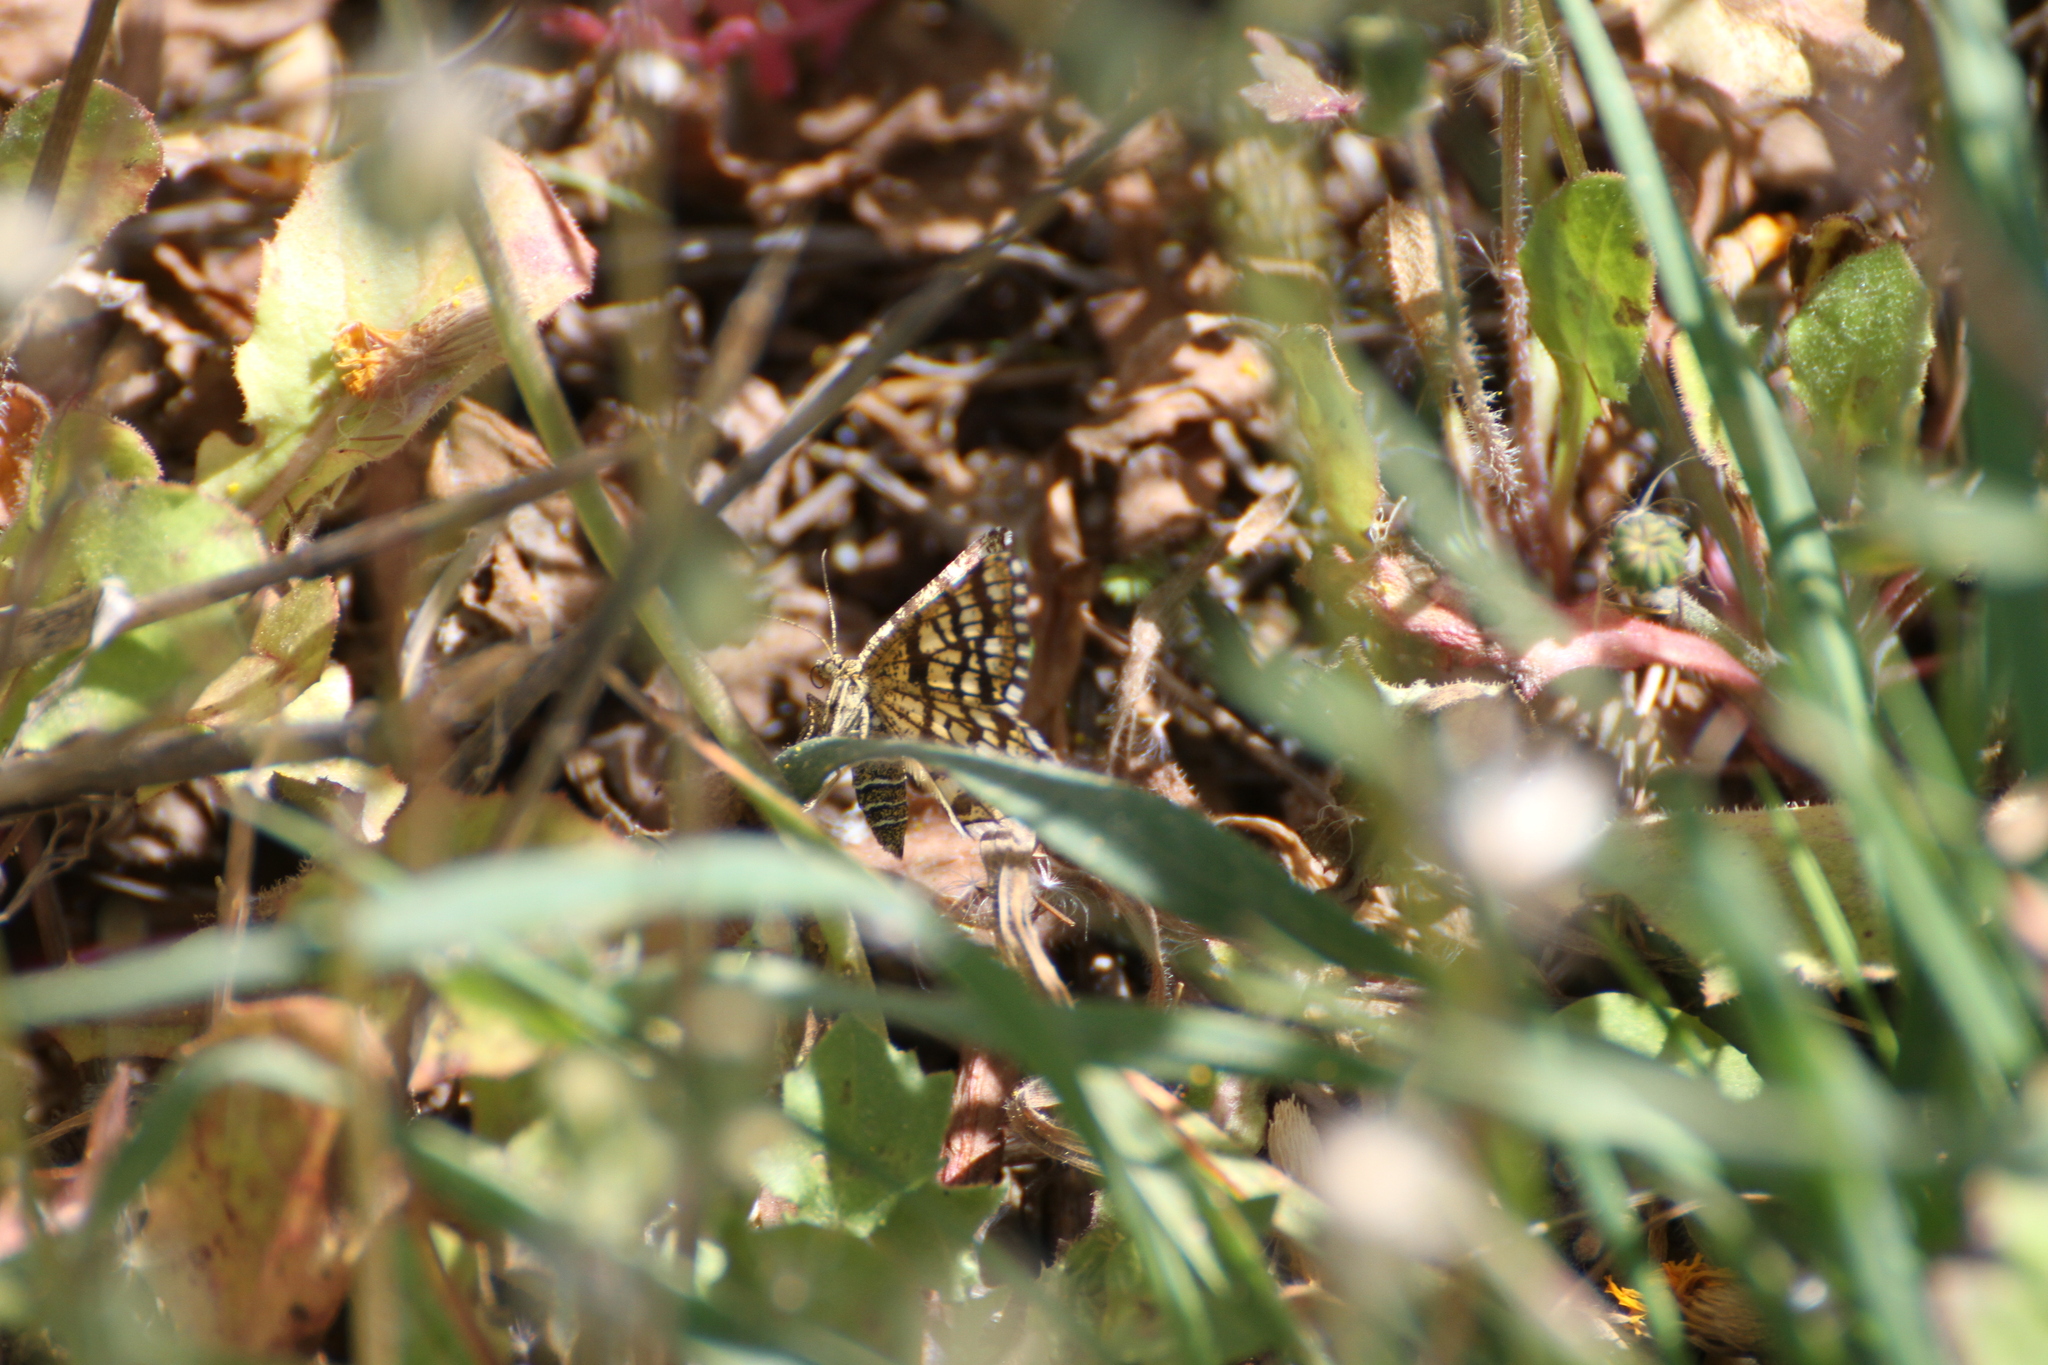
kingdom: Animalia
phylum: Arthropoda
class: Insecta
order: Lepidoptera
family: Geometridae
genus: Chiasmia
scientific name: Chiasmia clathrata
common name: Latticed heath
